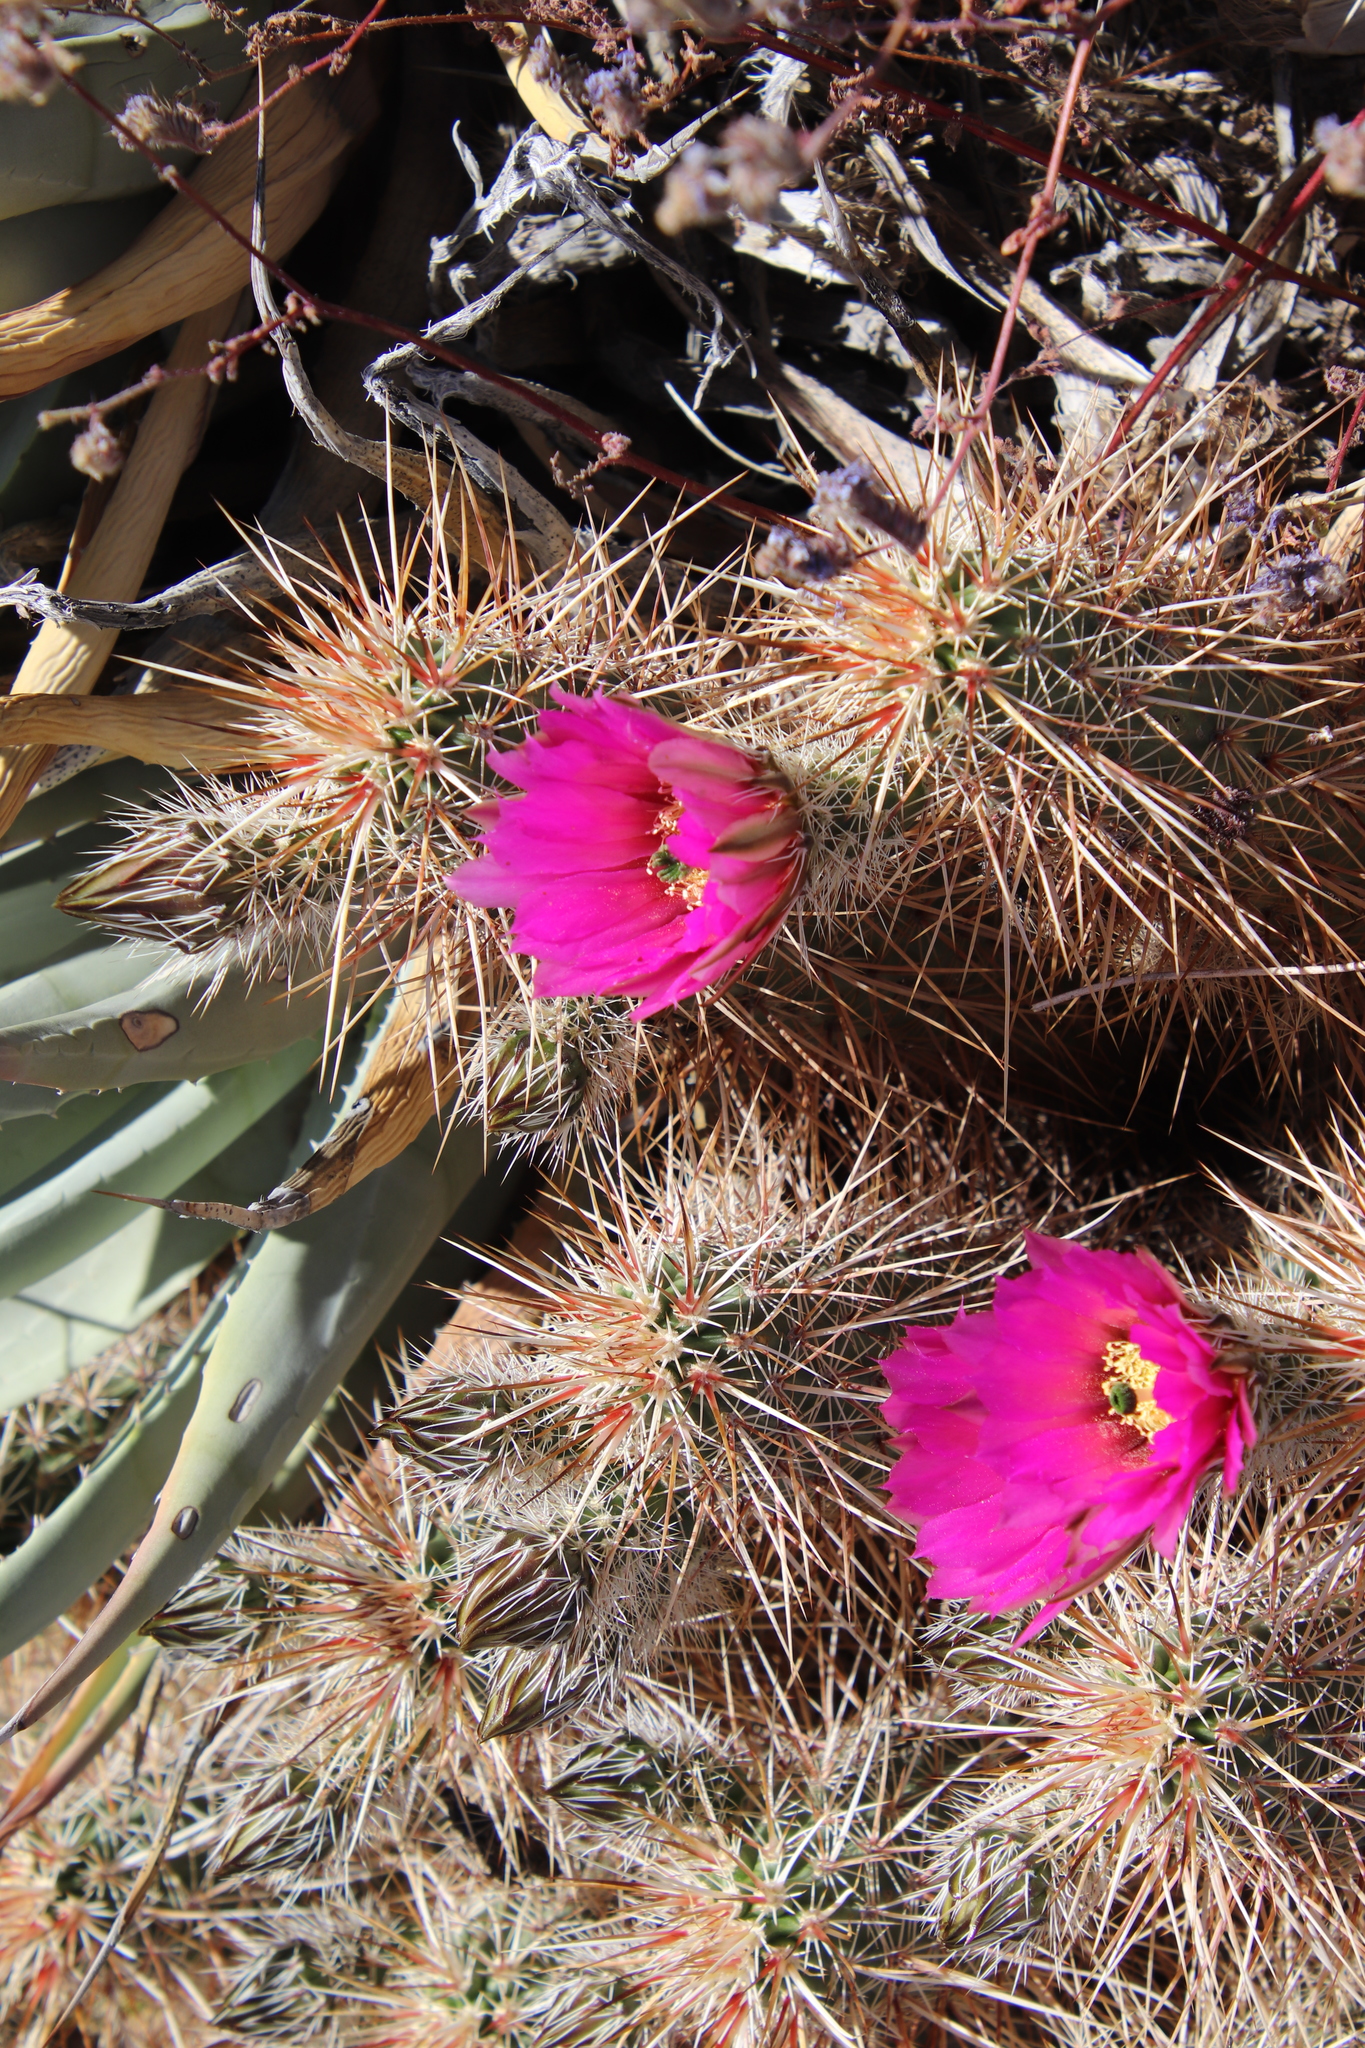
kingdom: Plantae
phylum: Tracheophyta
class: Magnoliopsida
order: Caryophyllales
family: Cactaceae
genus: Echinocereus
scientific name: Echinocereus engelmannii
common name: Engelmann's hedgehog cactus
